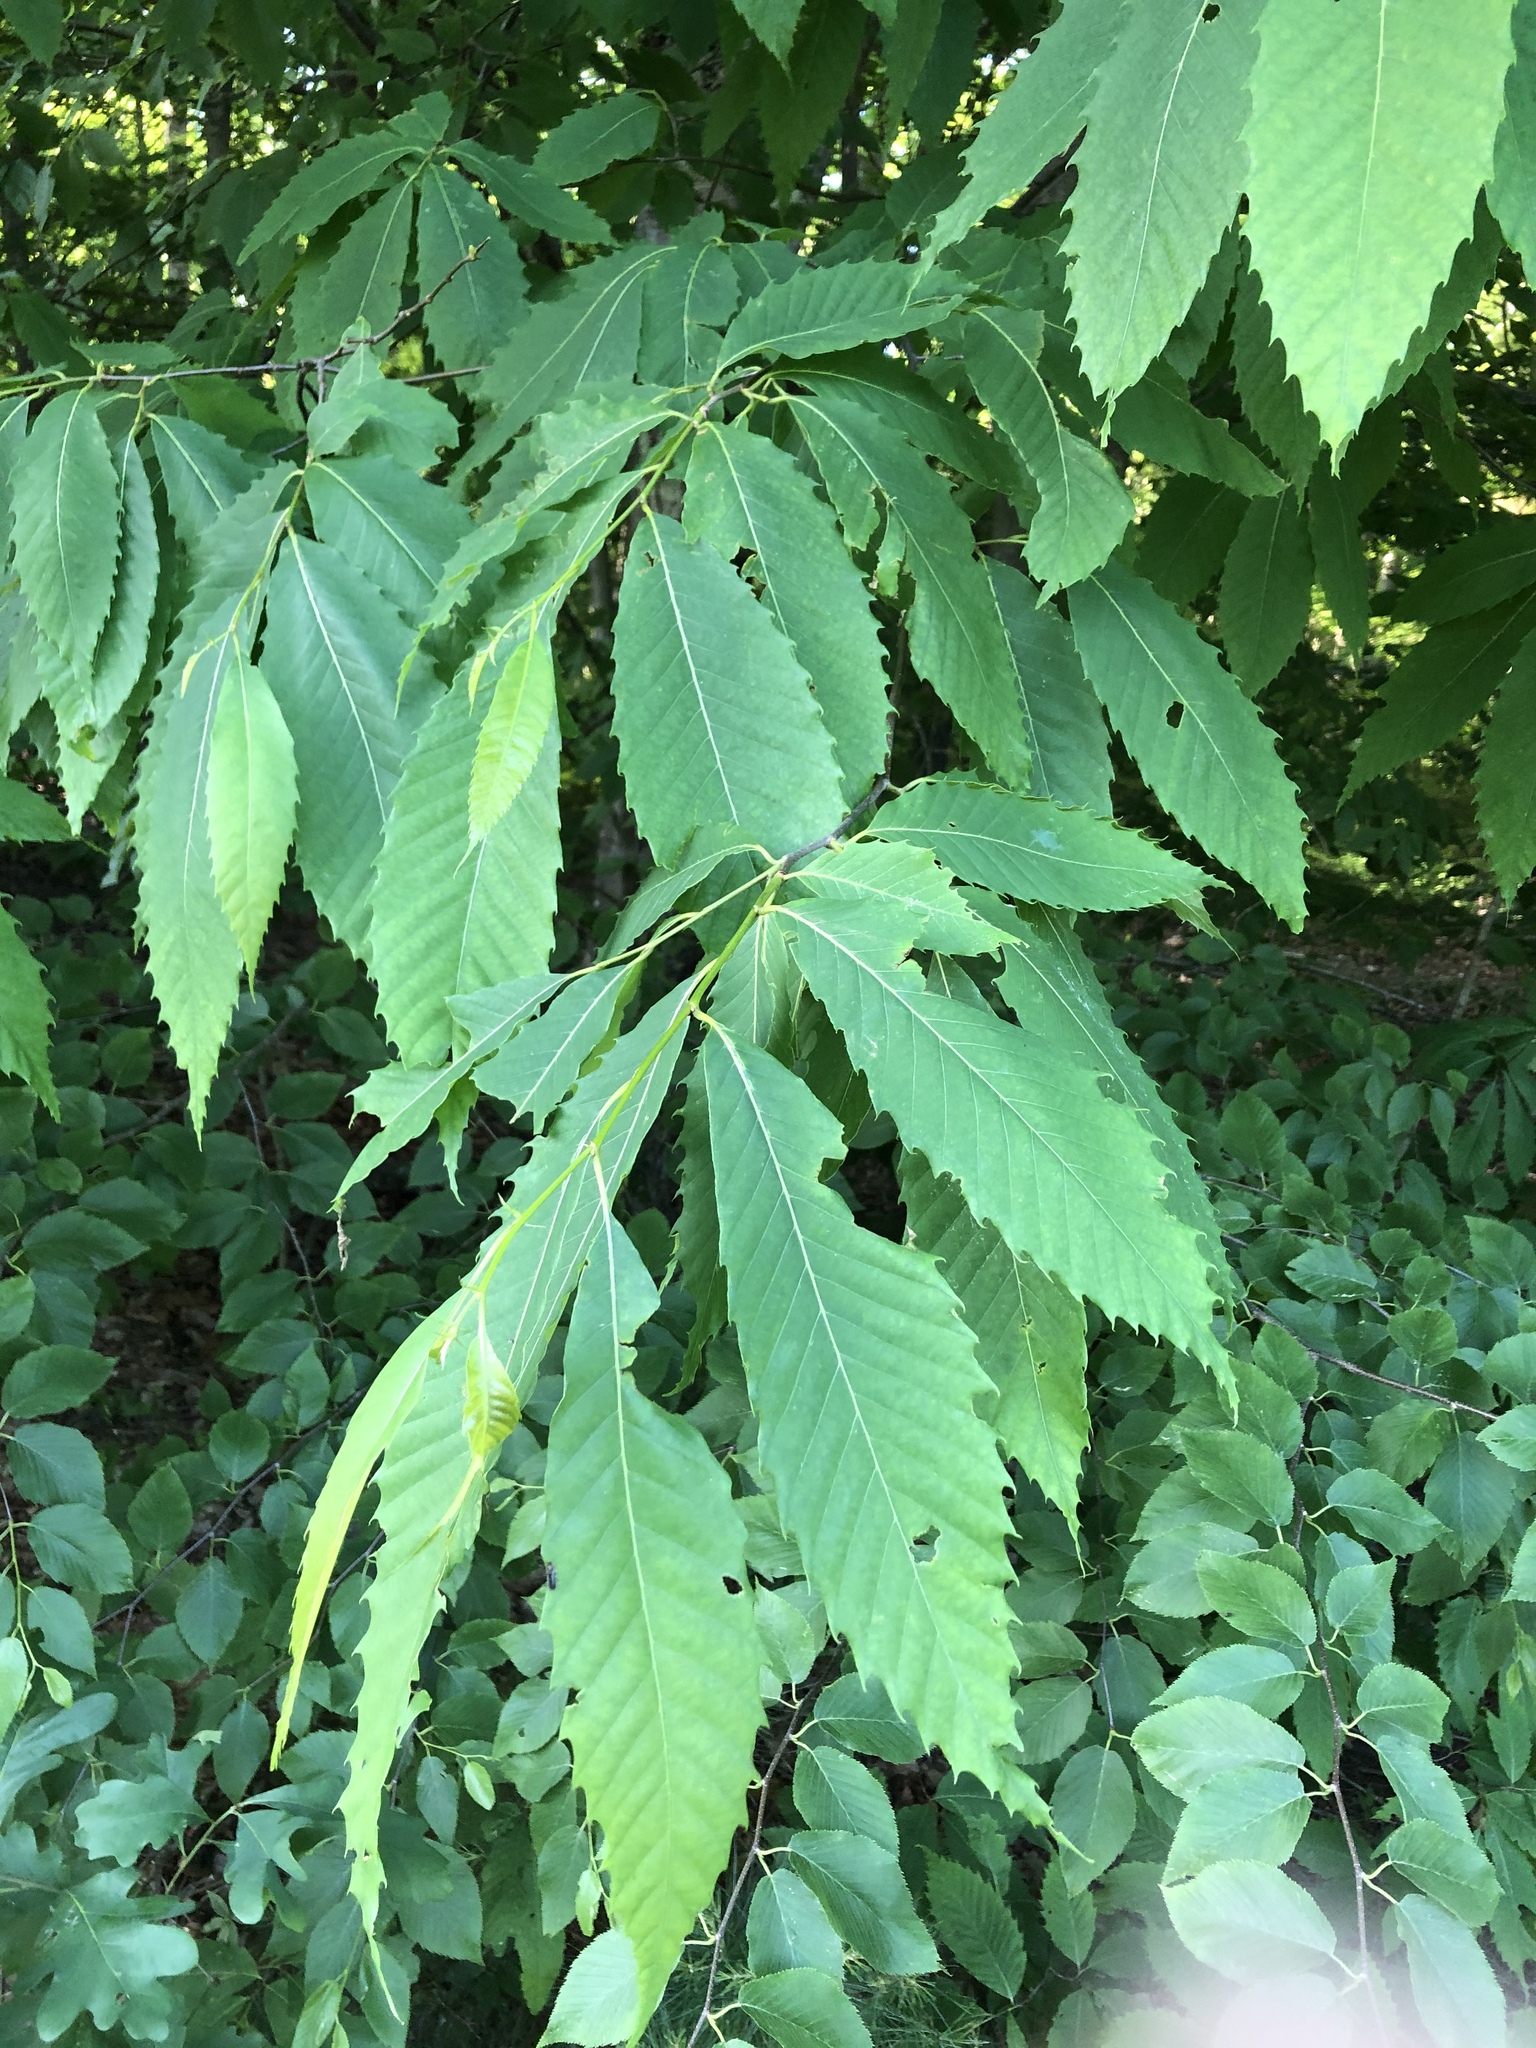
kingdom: Plantae
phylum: Tracheophyta
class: Magnoliopsida
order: Fagales
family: Fagaceae
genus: Castanea
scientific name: Castanea dentata
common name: American chestnut
